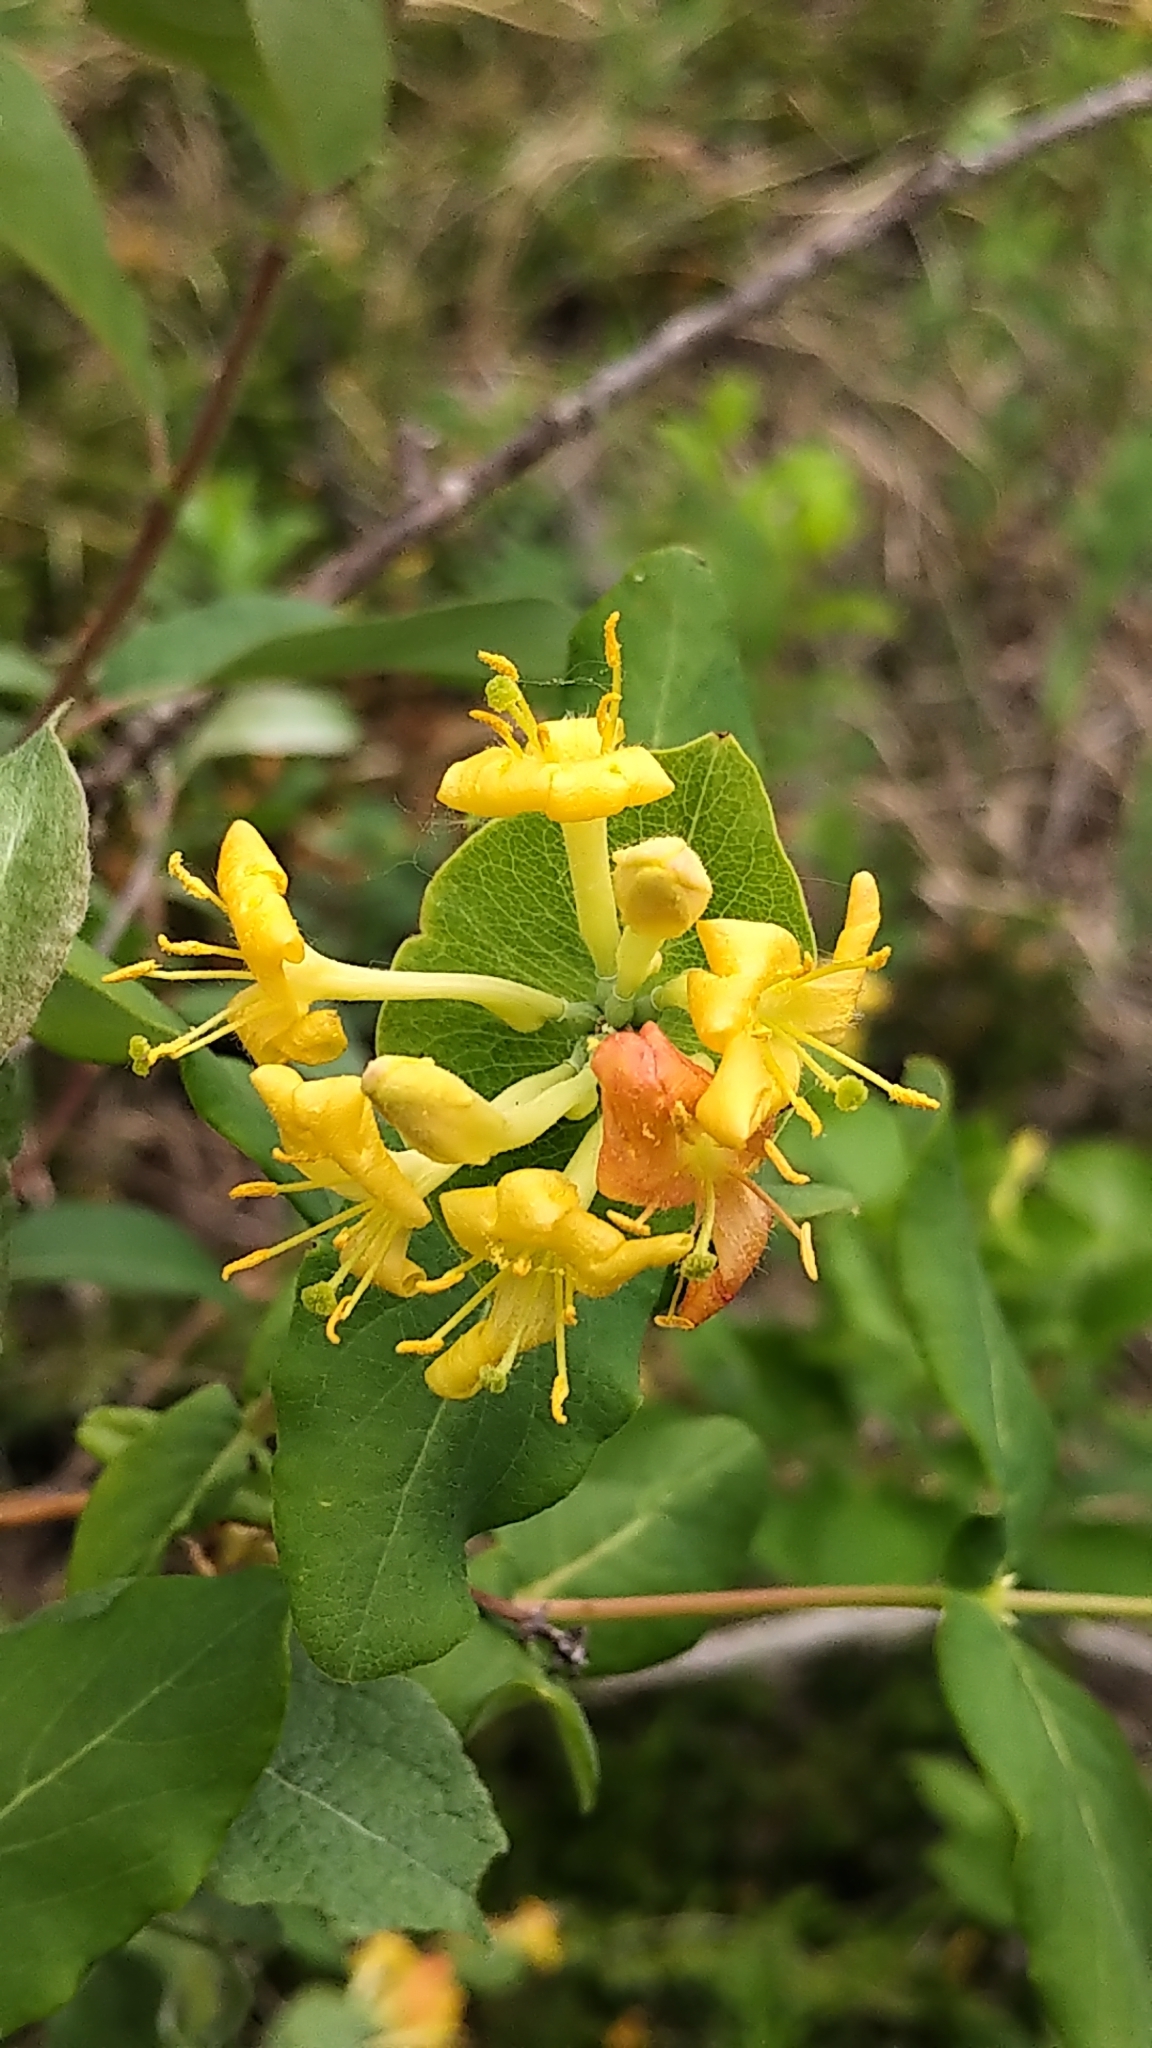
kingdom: Plantae
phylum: Tracheophyta
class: Magnoliopsida
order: Dipsacales
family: Caprifoliaceae
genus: Lonicera
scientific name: Lonicera dioica
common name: Limber honeysuckle
